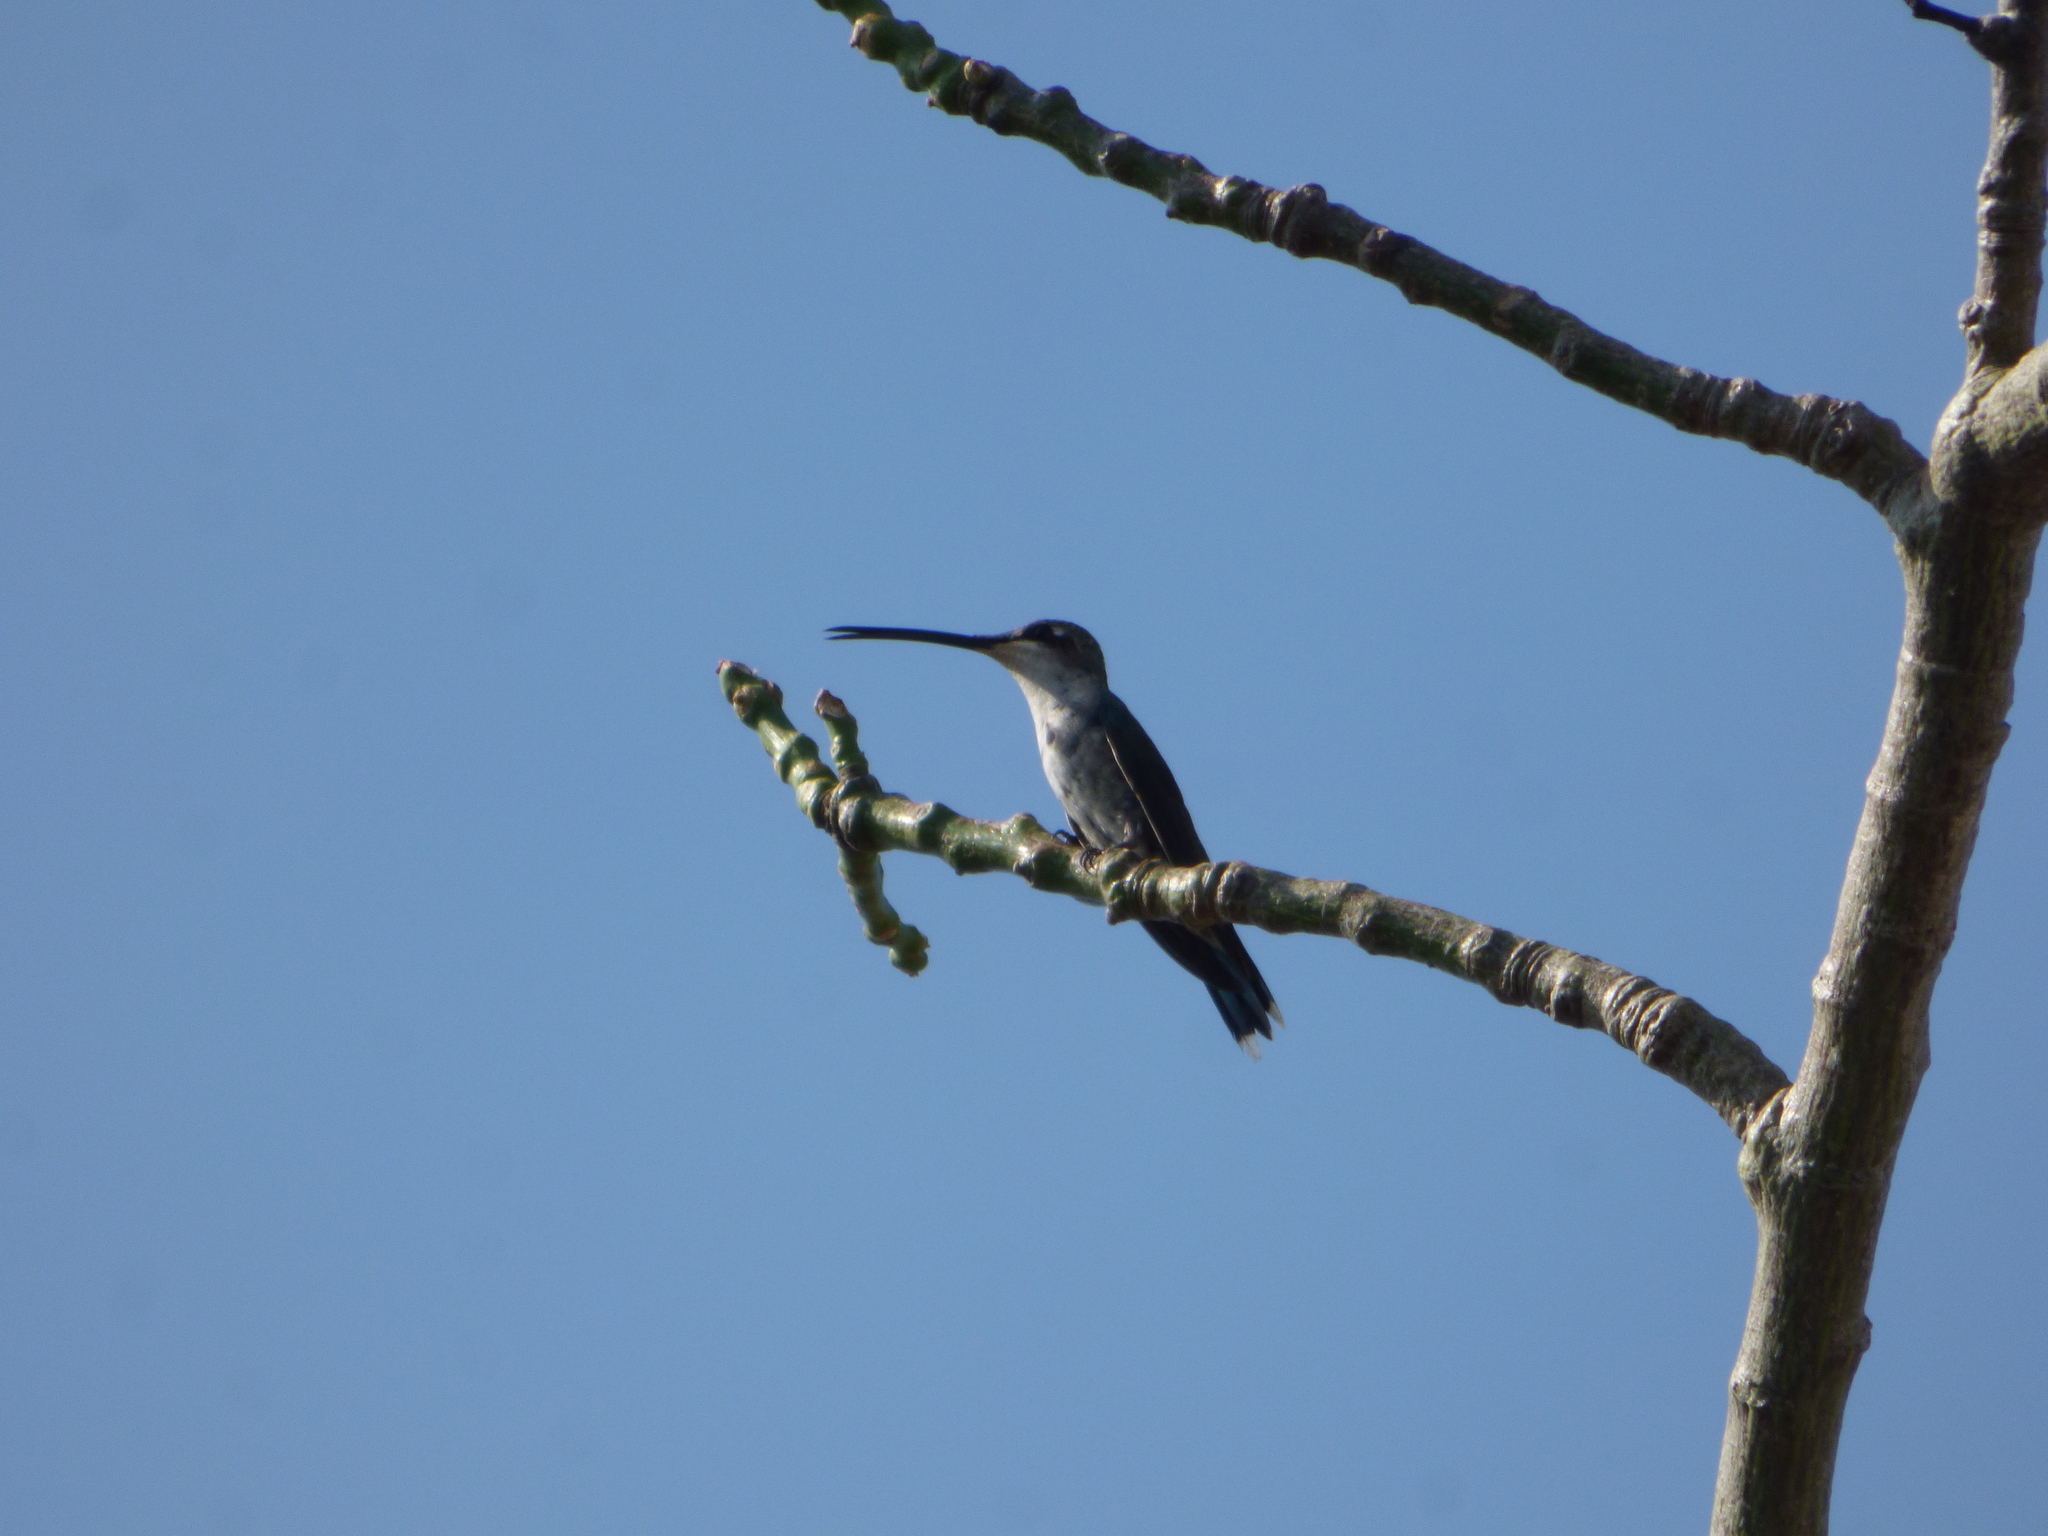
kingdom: Animalia
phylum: Chordata
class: Aves
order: Apodiformes
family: Trochilidae
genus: Heliomaster
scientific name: Heliomaster furcifer
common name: Blue-tufted starthroat
